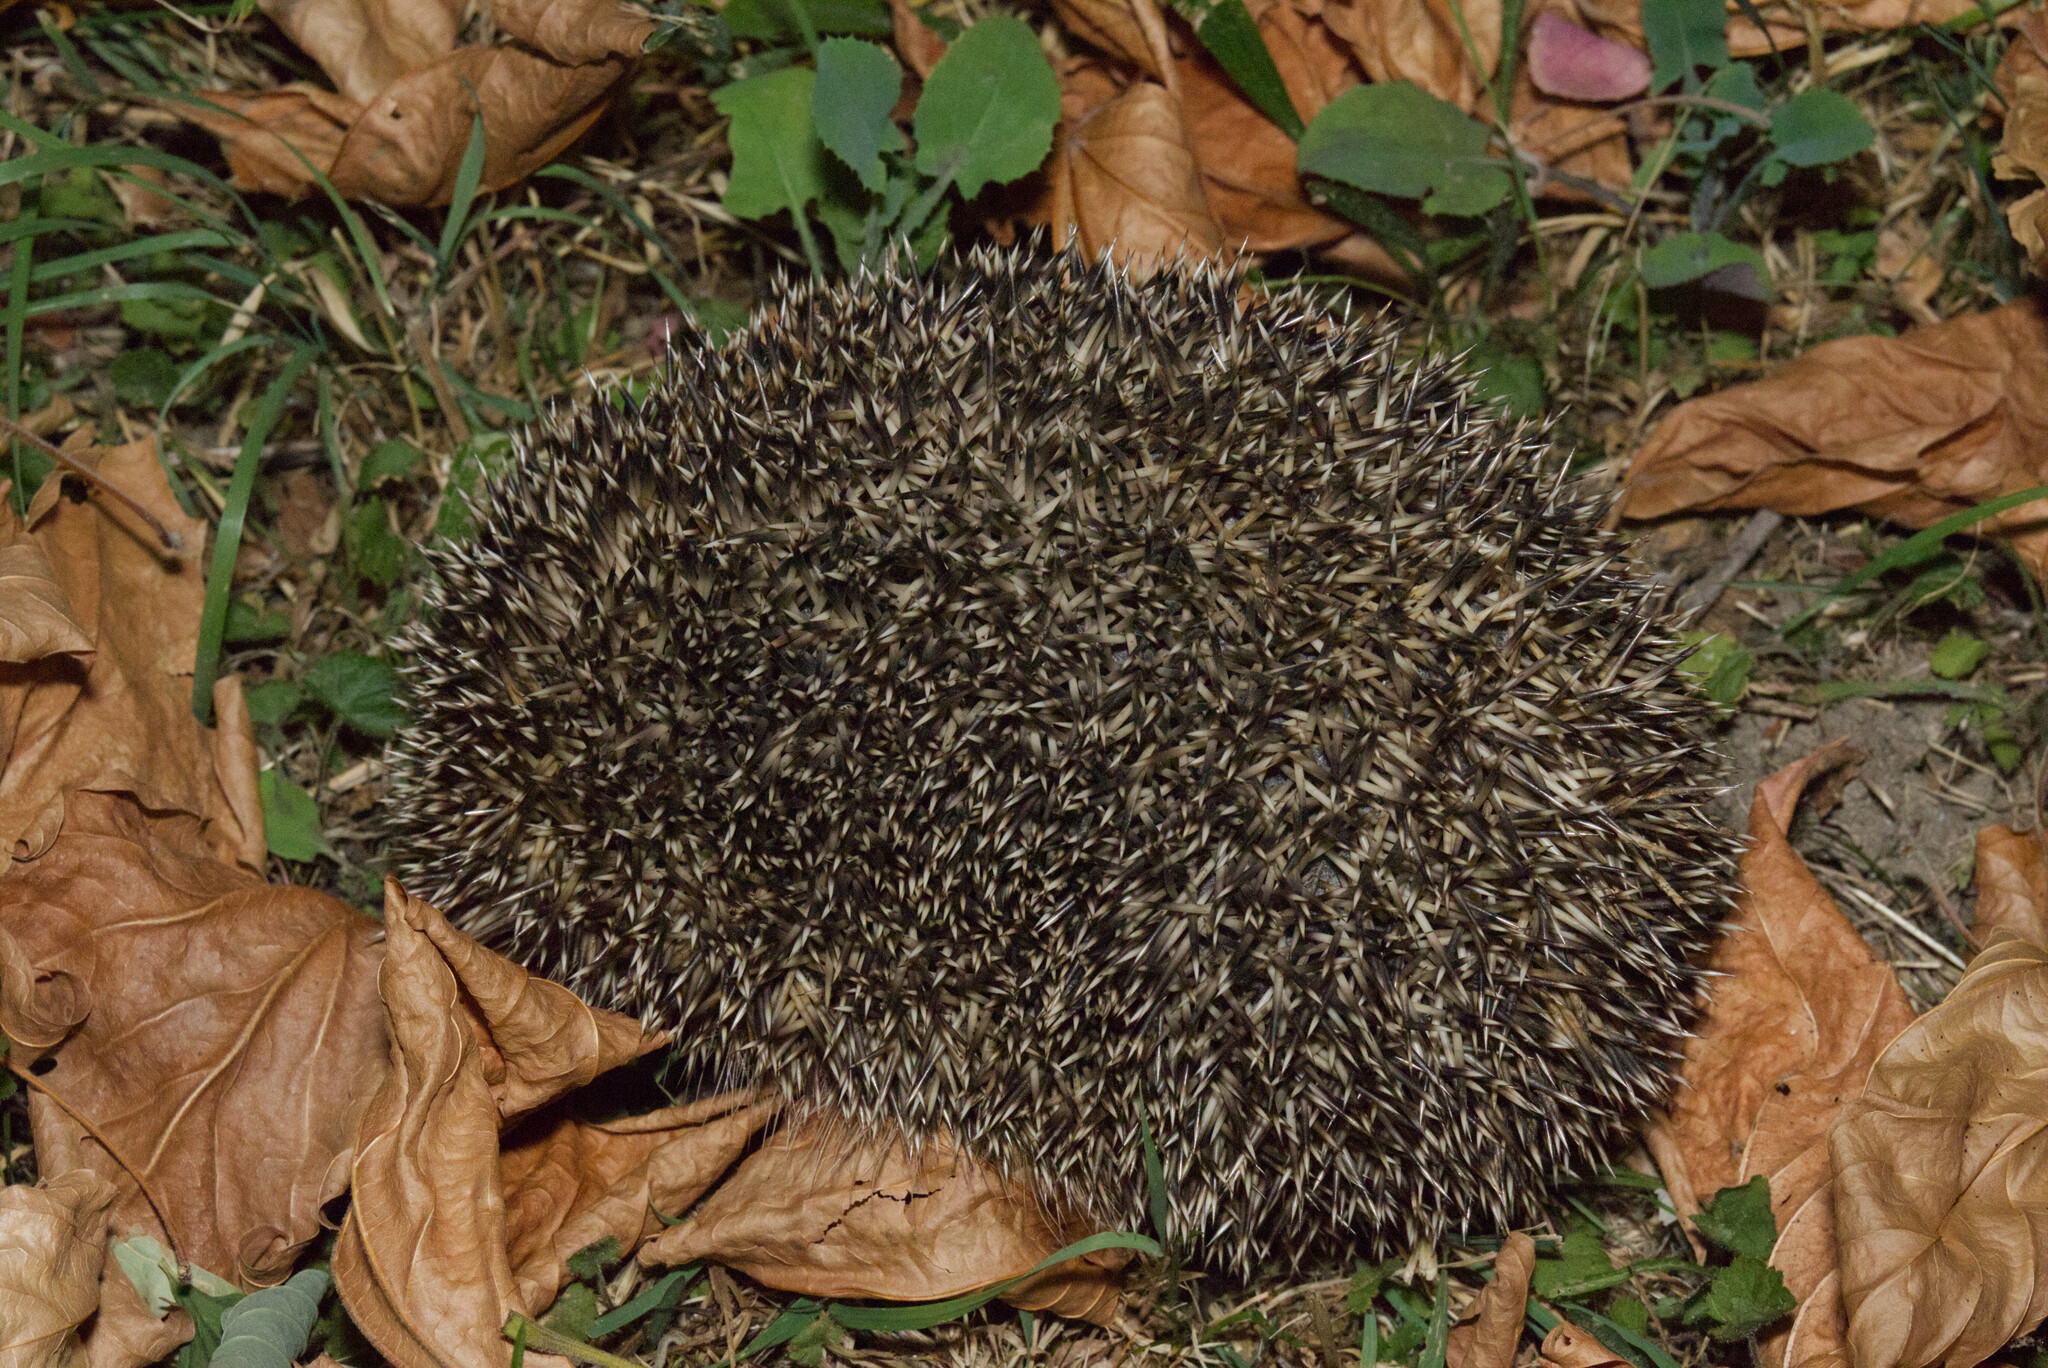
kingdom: Animalia
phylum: Chordata
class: Mammalia
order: Erinaceomorpha
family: Erinaceidae
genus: Erinaceus
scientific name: Erinaceus europaeus
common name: West european hedgehog
